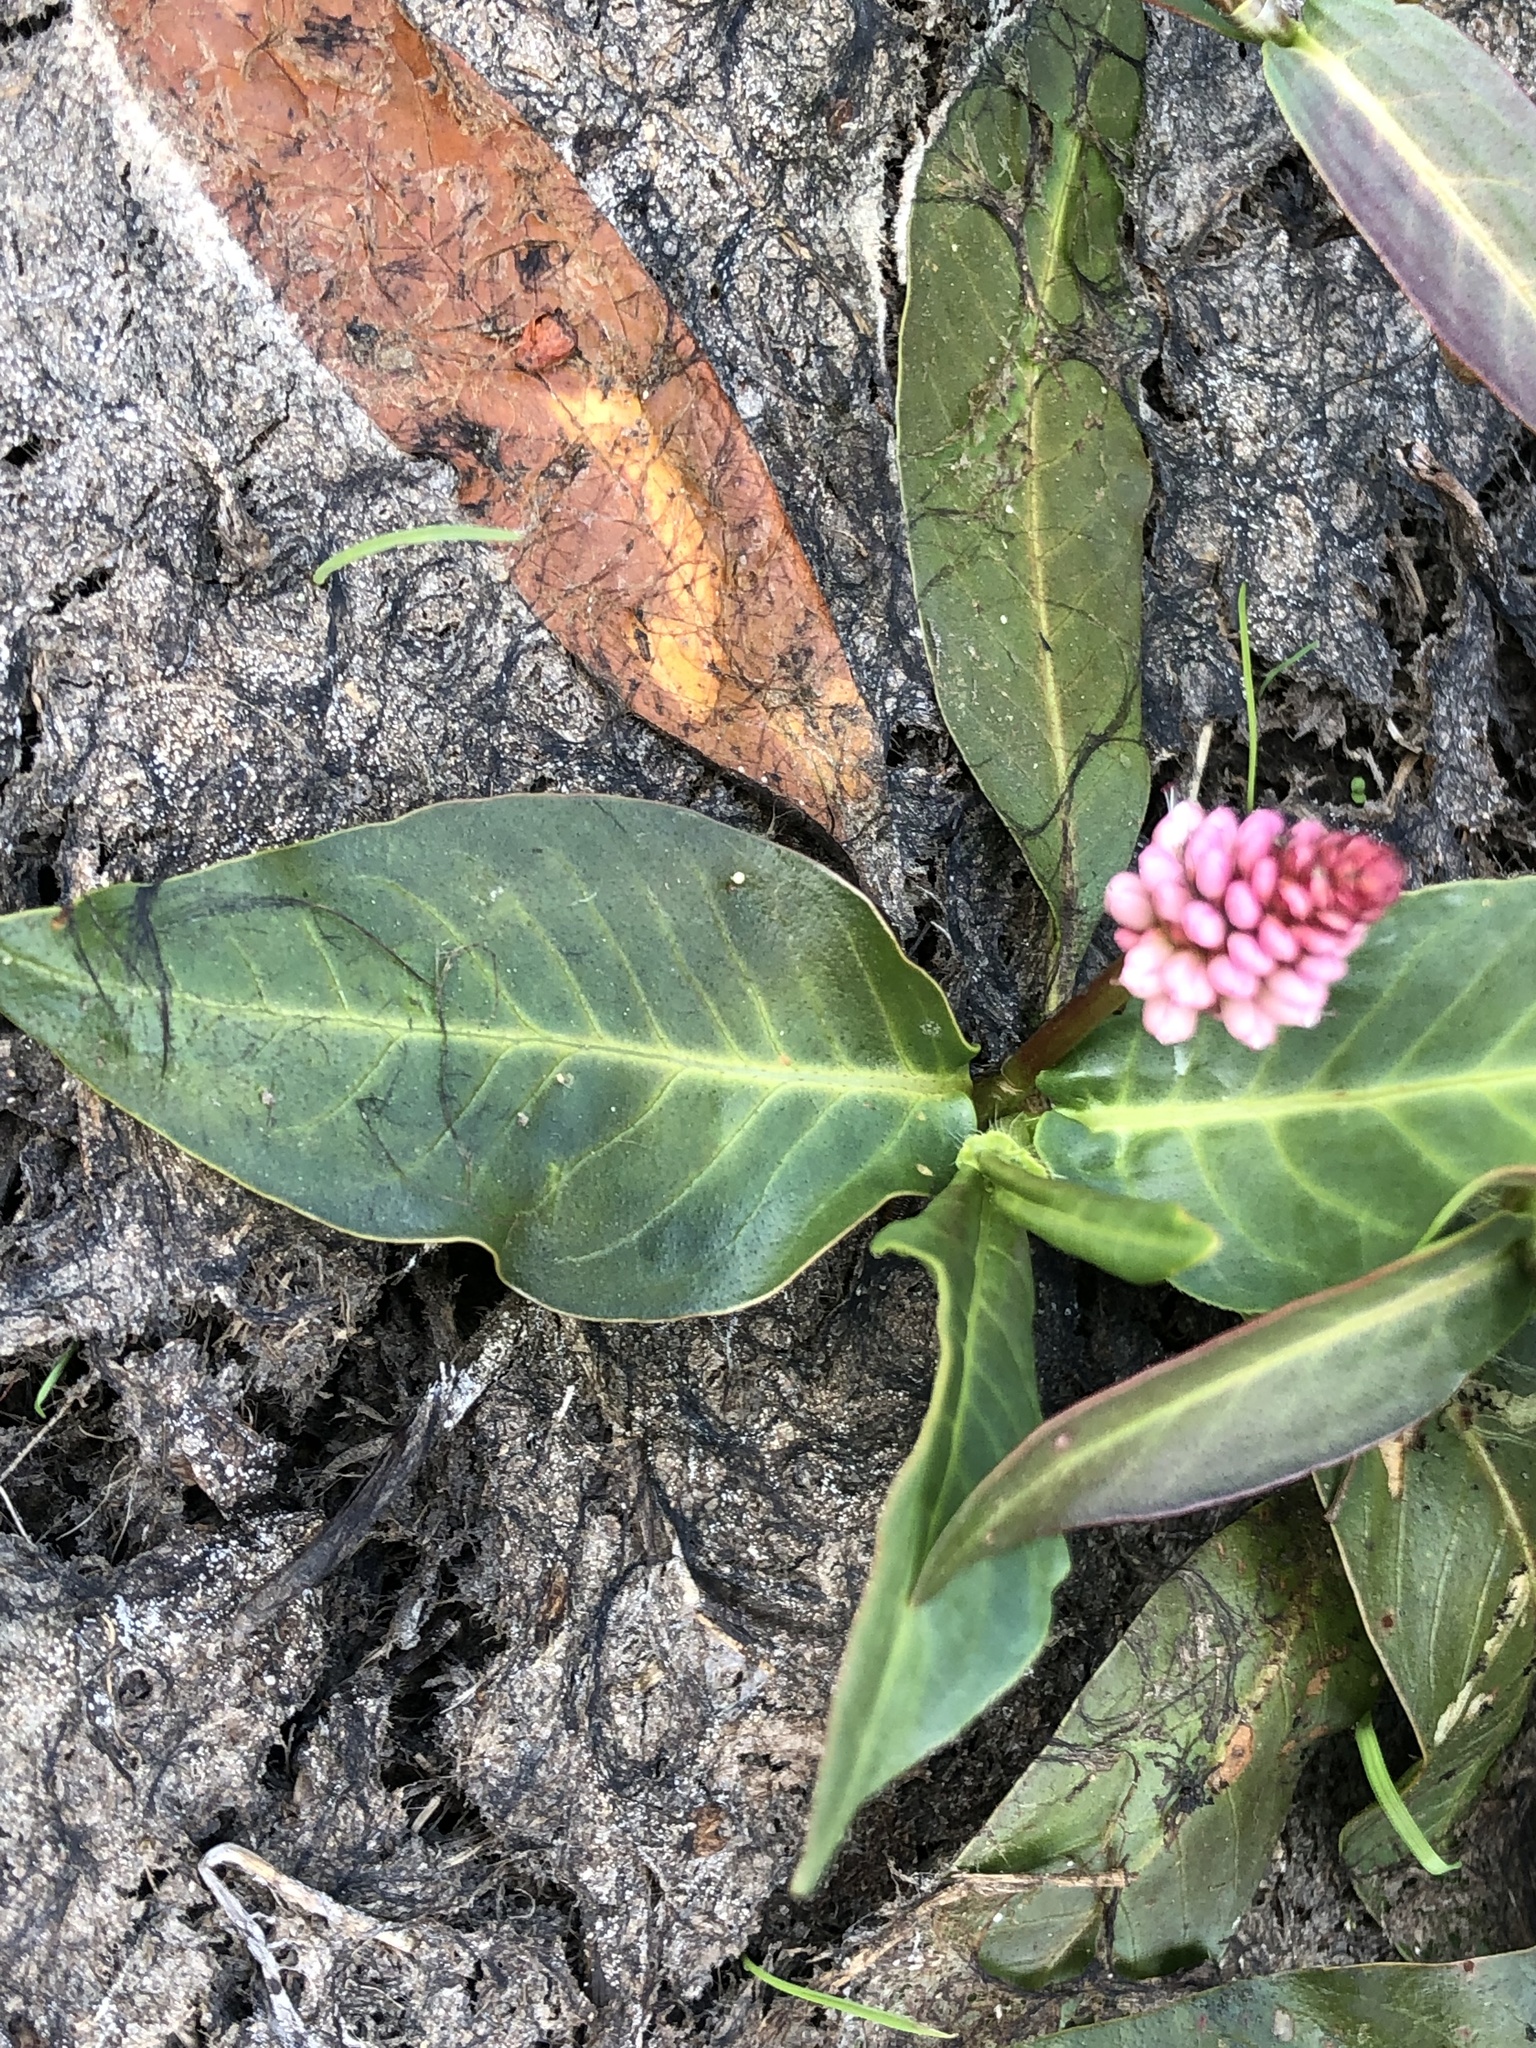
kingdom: Plantae
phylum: Tracheophyta
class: Magnoliopsida
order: Caryophyllales
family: Polygonaceae
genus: Persicaria
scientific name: Persicaria amphibia
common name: Amphibious bistort
